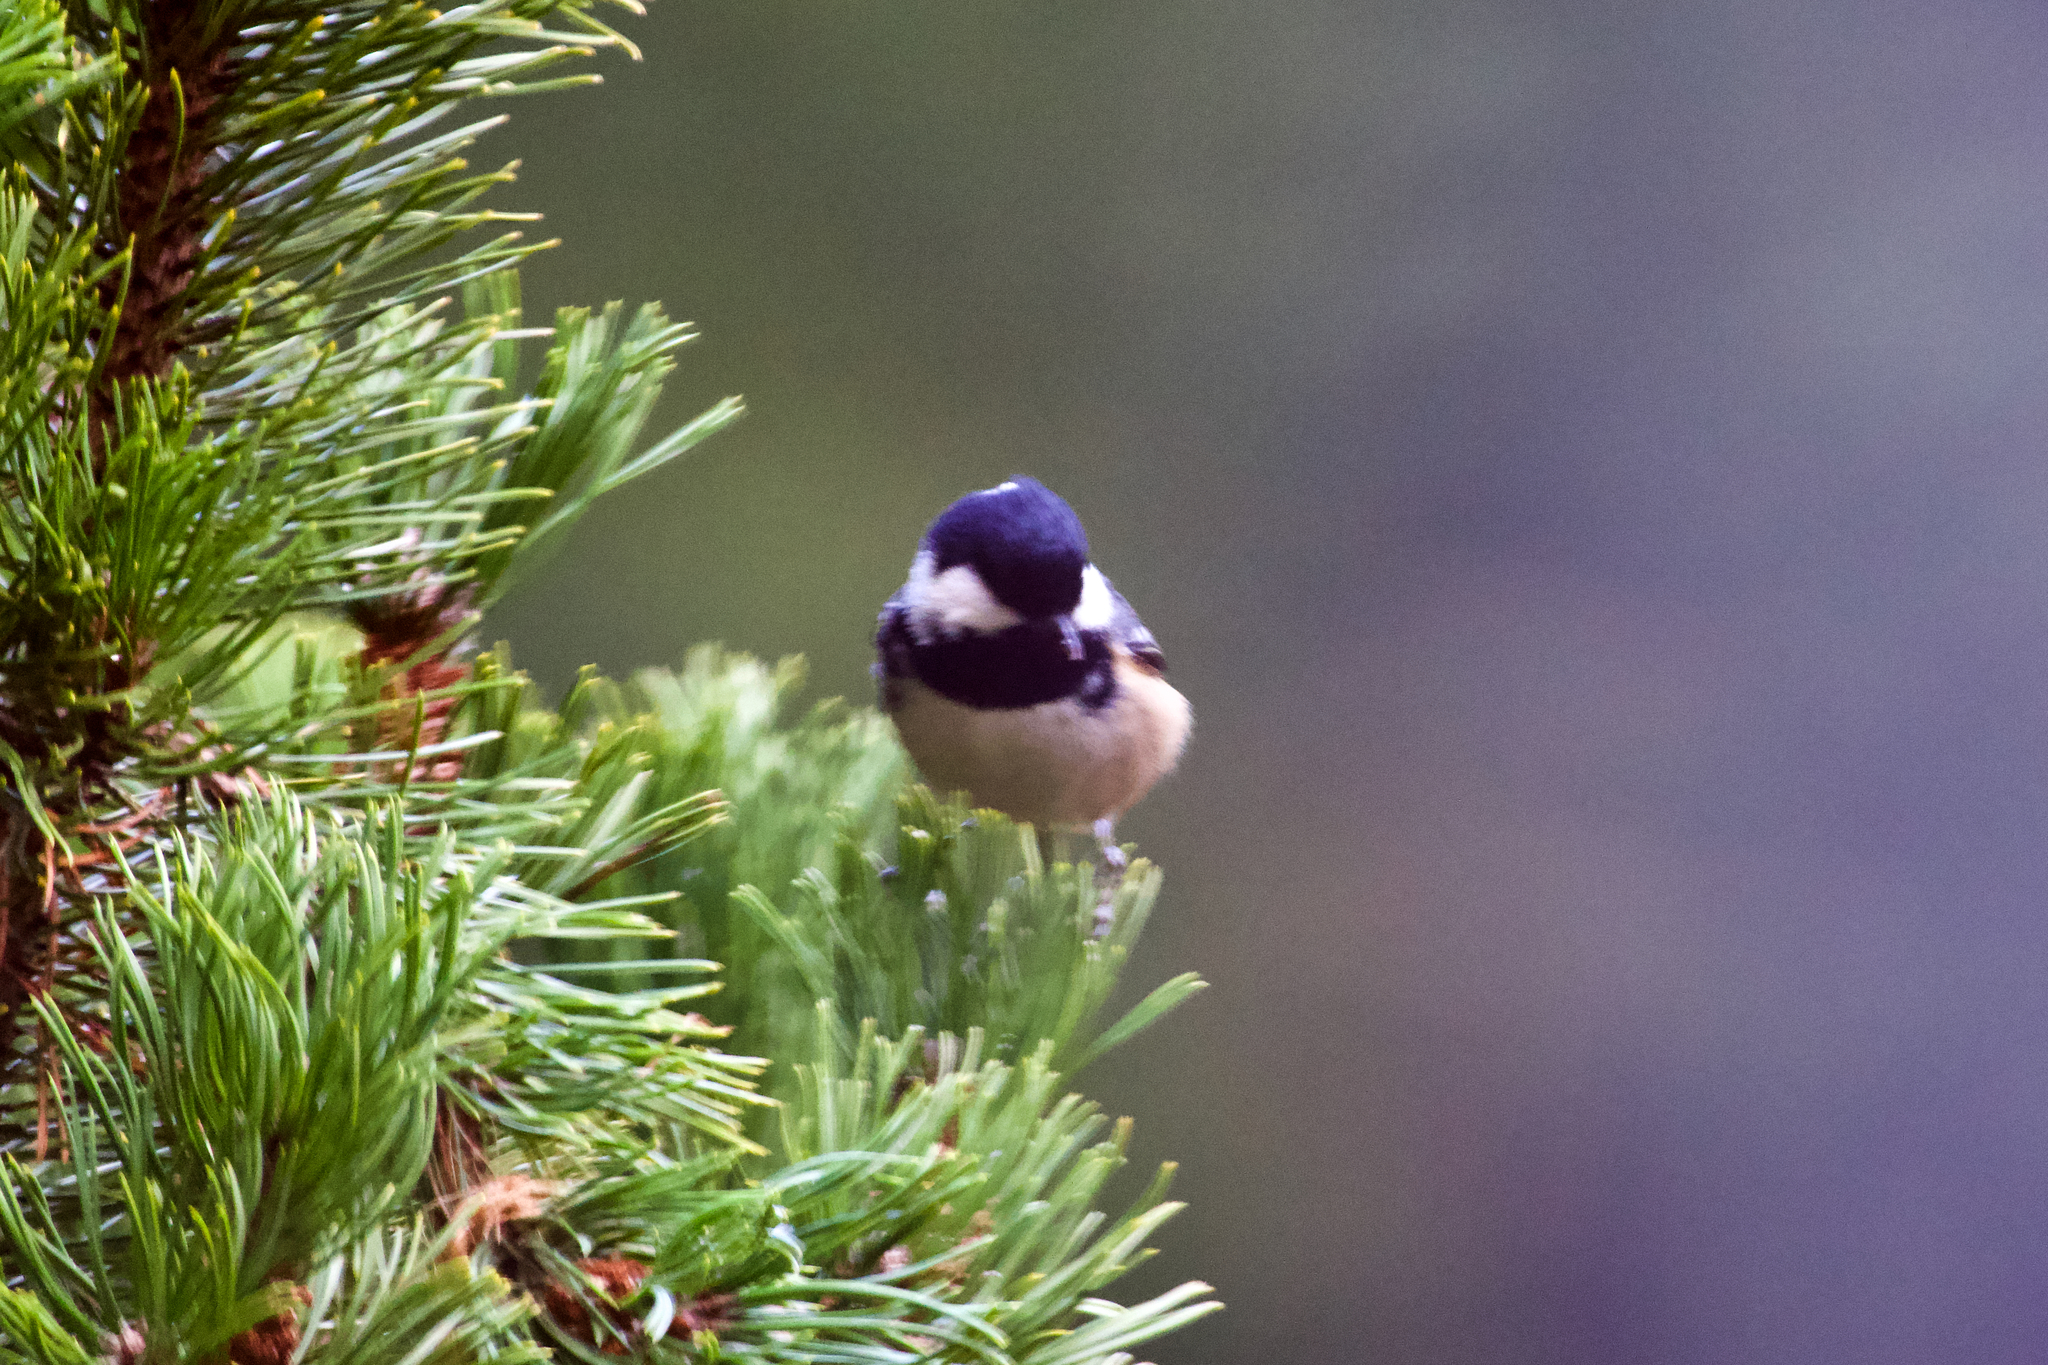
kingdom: Animalia
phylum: Chordata
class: Aves
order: Passeriformes
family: Paridae
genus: Periparus
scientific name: Periparus ater
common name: Coal tit
